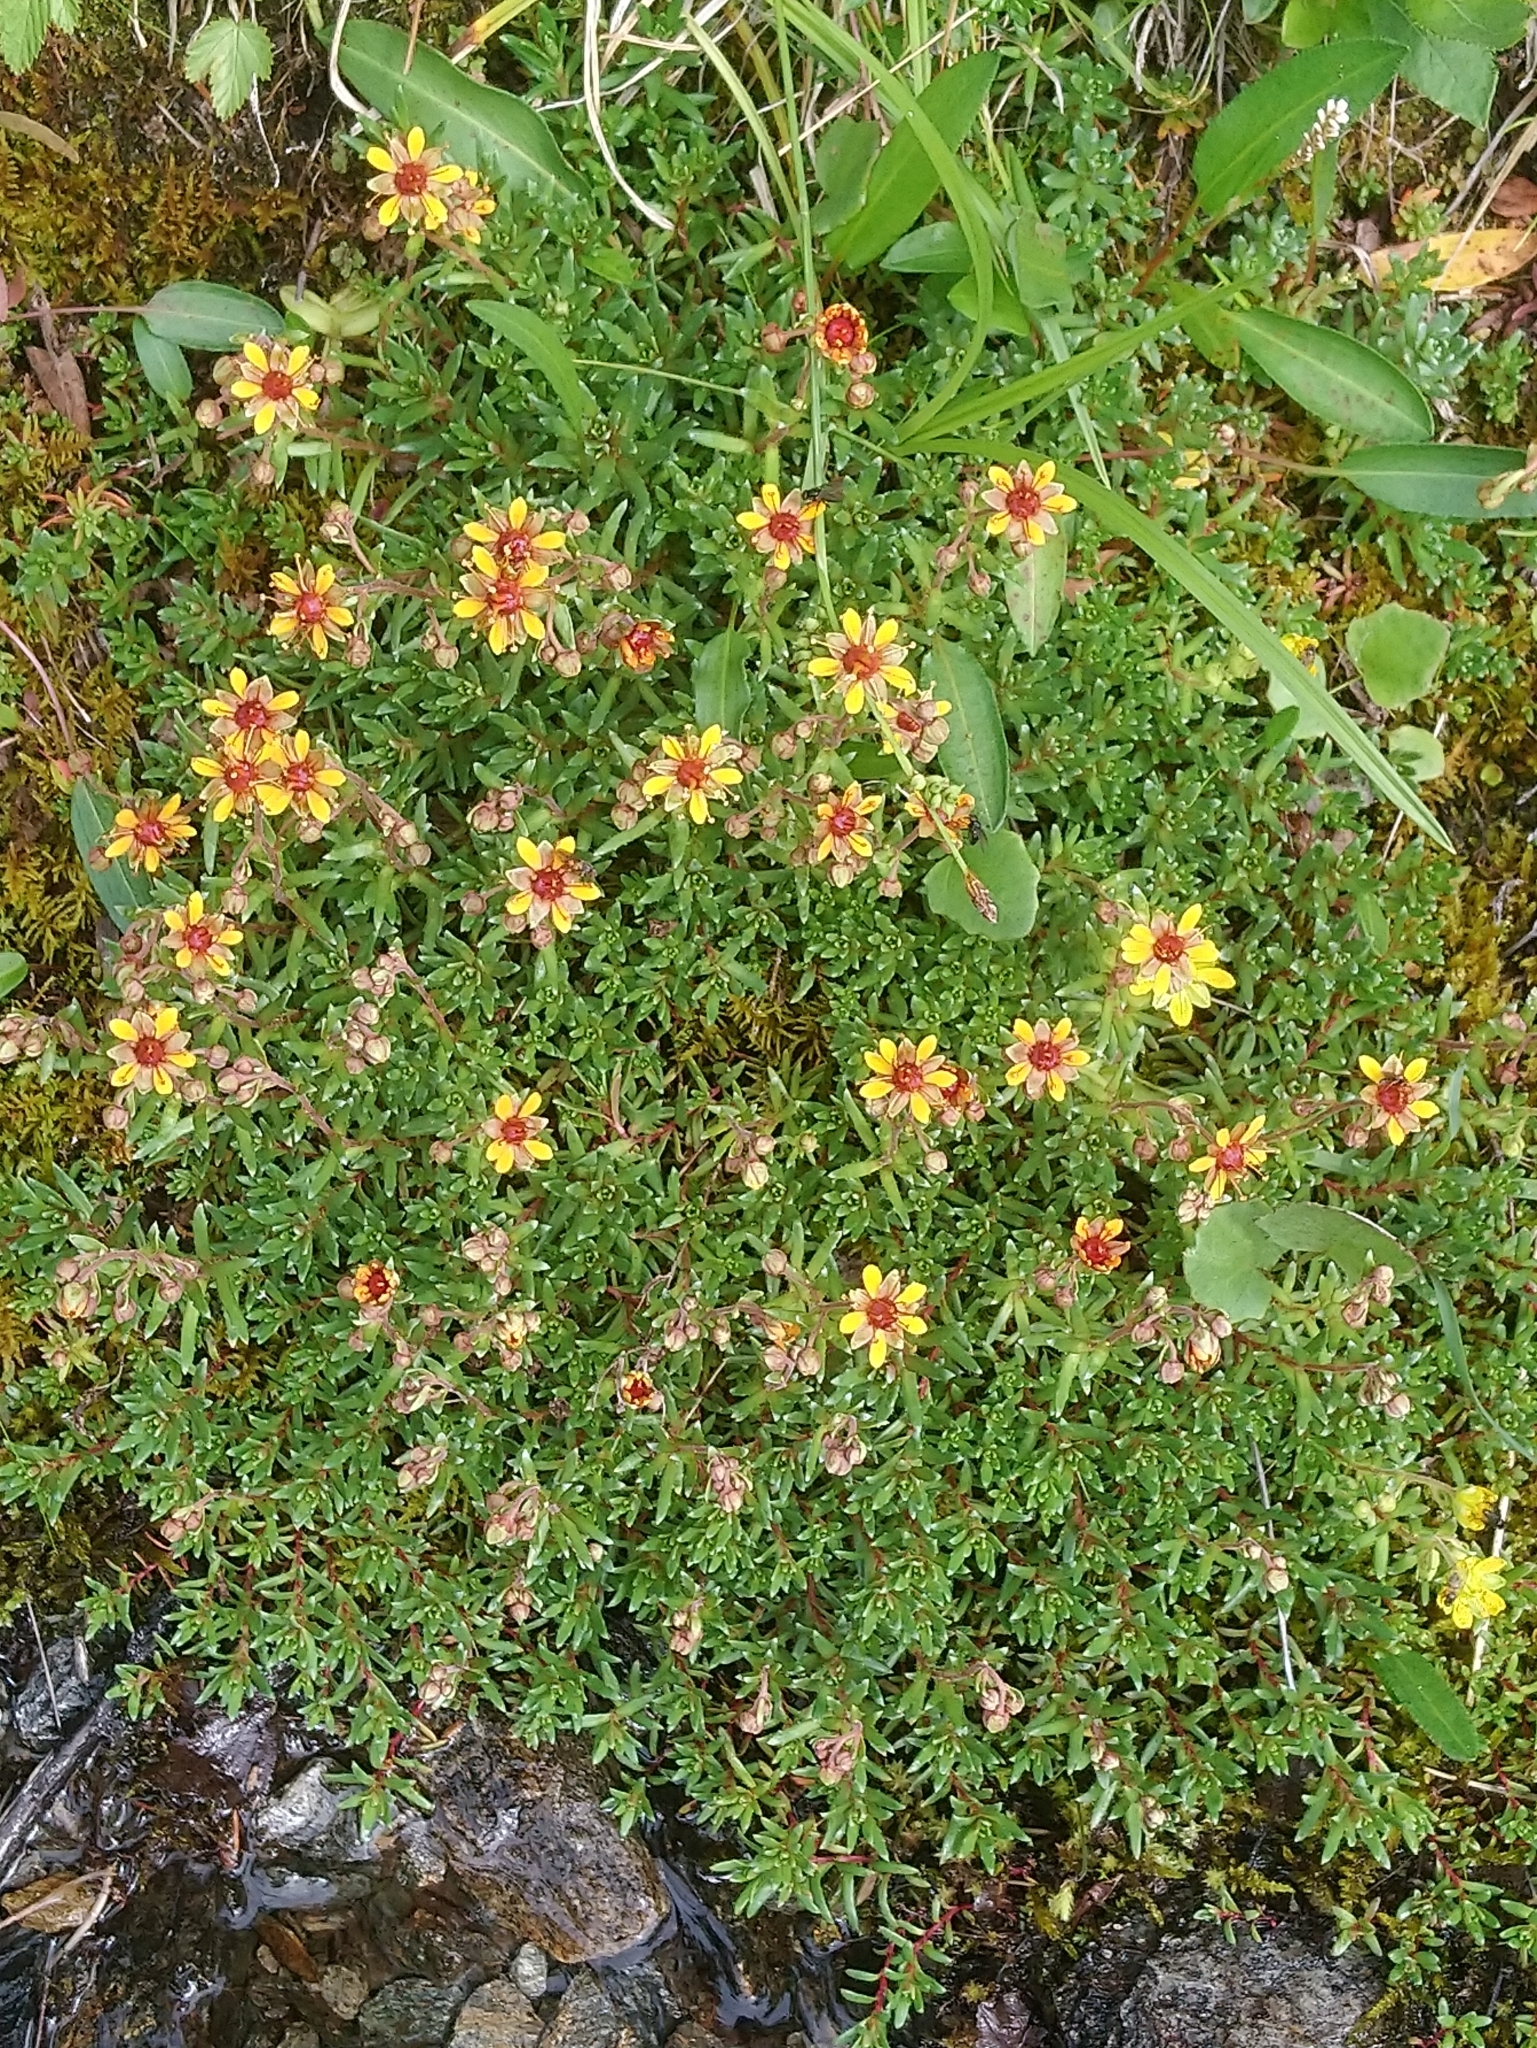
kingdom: Plantae
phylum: Tracheophyta
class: Magnoliopsida
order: Saxifragales
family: Saxifragaceae
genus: Saxifraga
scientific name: Saxifraga aizoides
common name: Yellow mountain saxifrage
